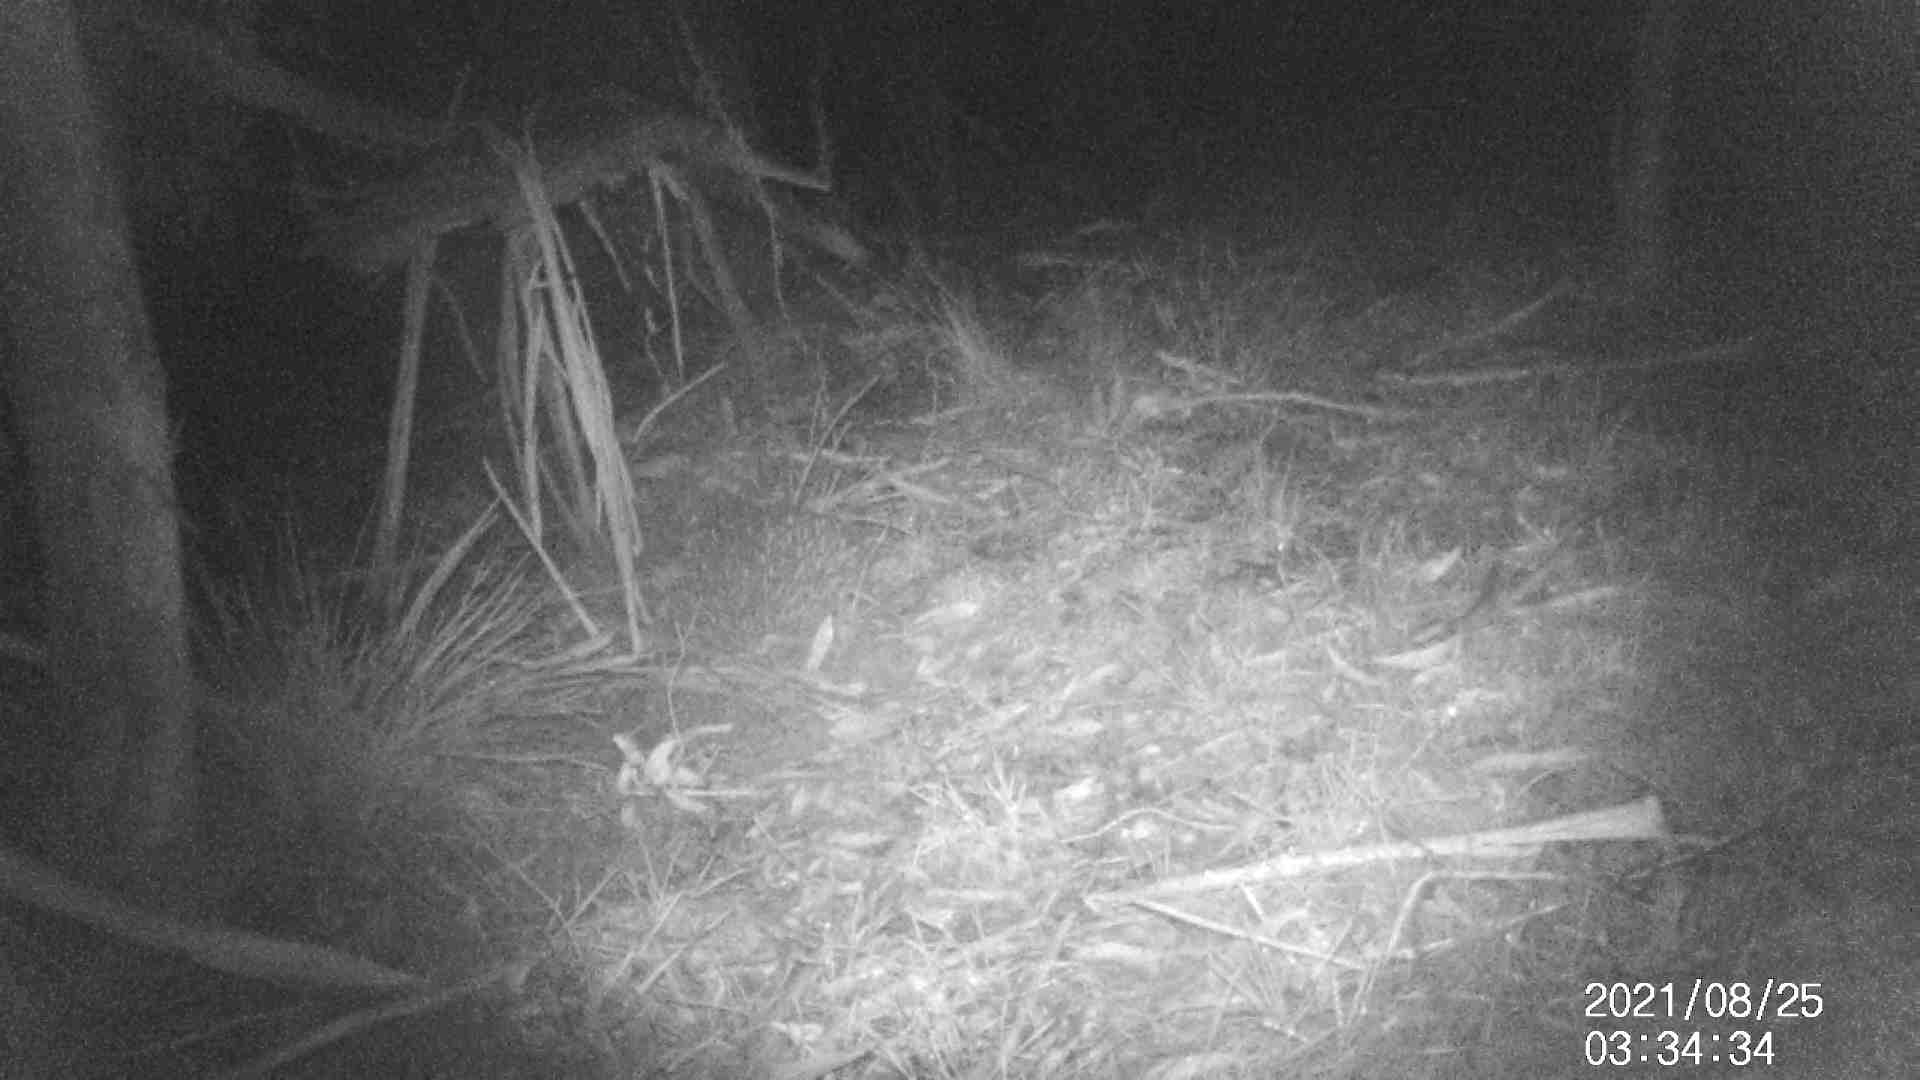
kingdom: Animalia
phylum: Chordata
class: Mammalia
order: Monotremata
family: Tachyglossidae
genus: Tachyglossus
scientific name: Tachyglossus aculeatus
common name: Short-beaked echidna
